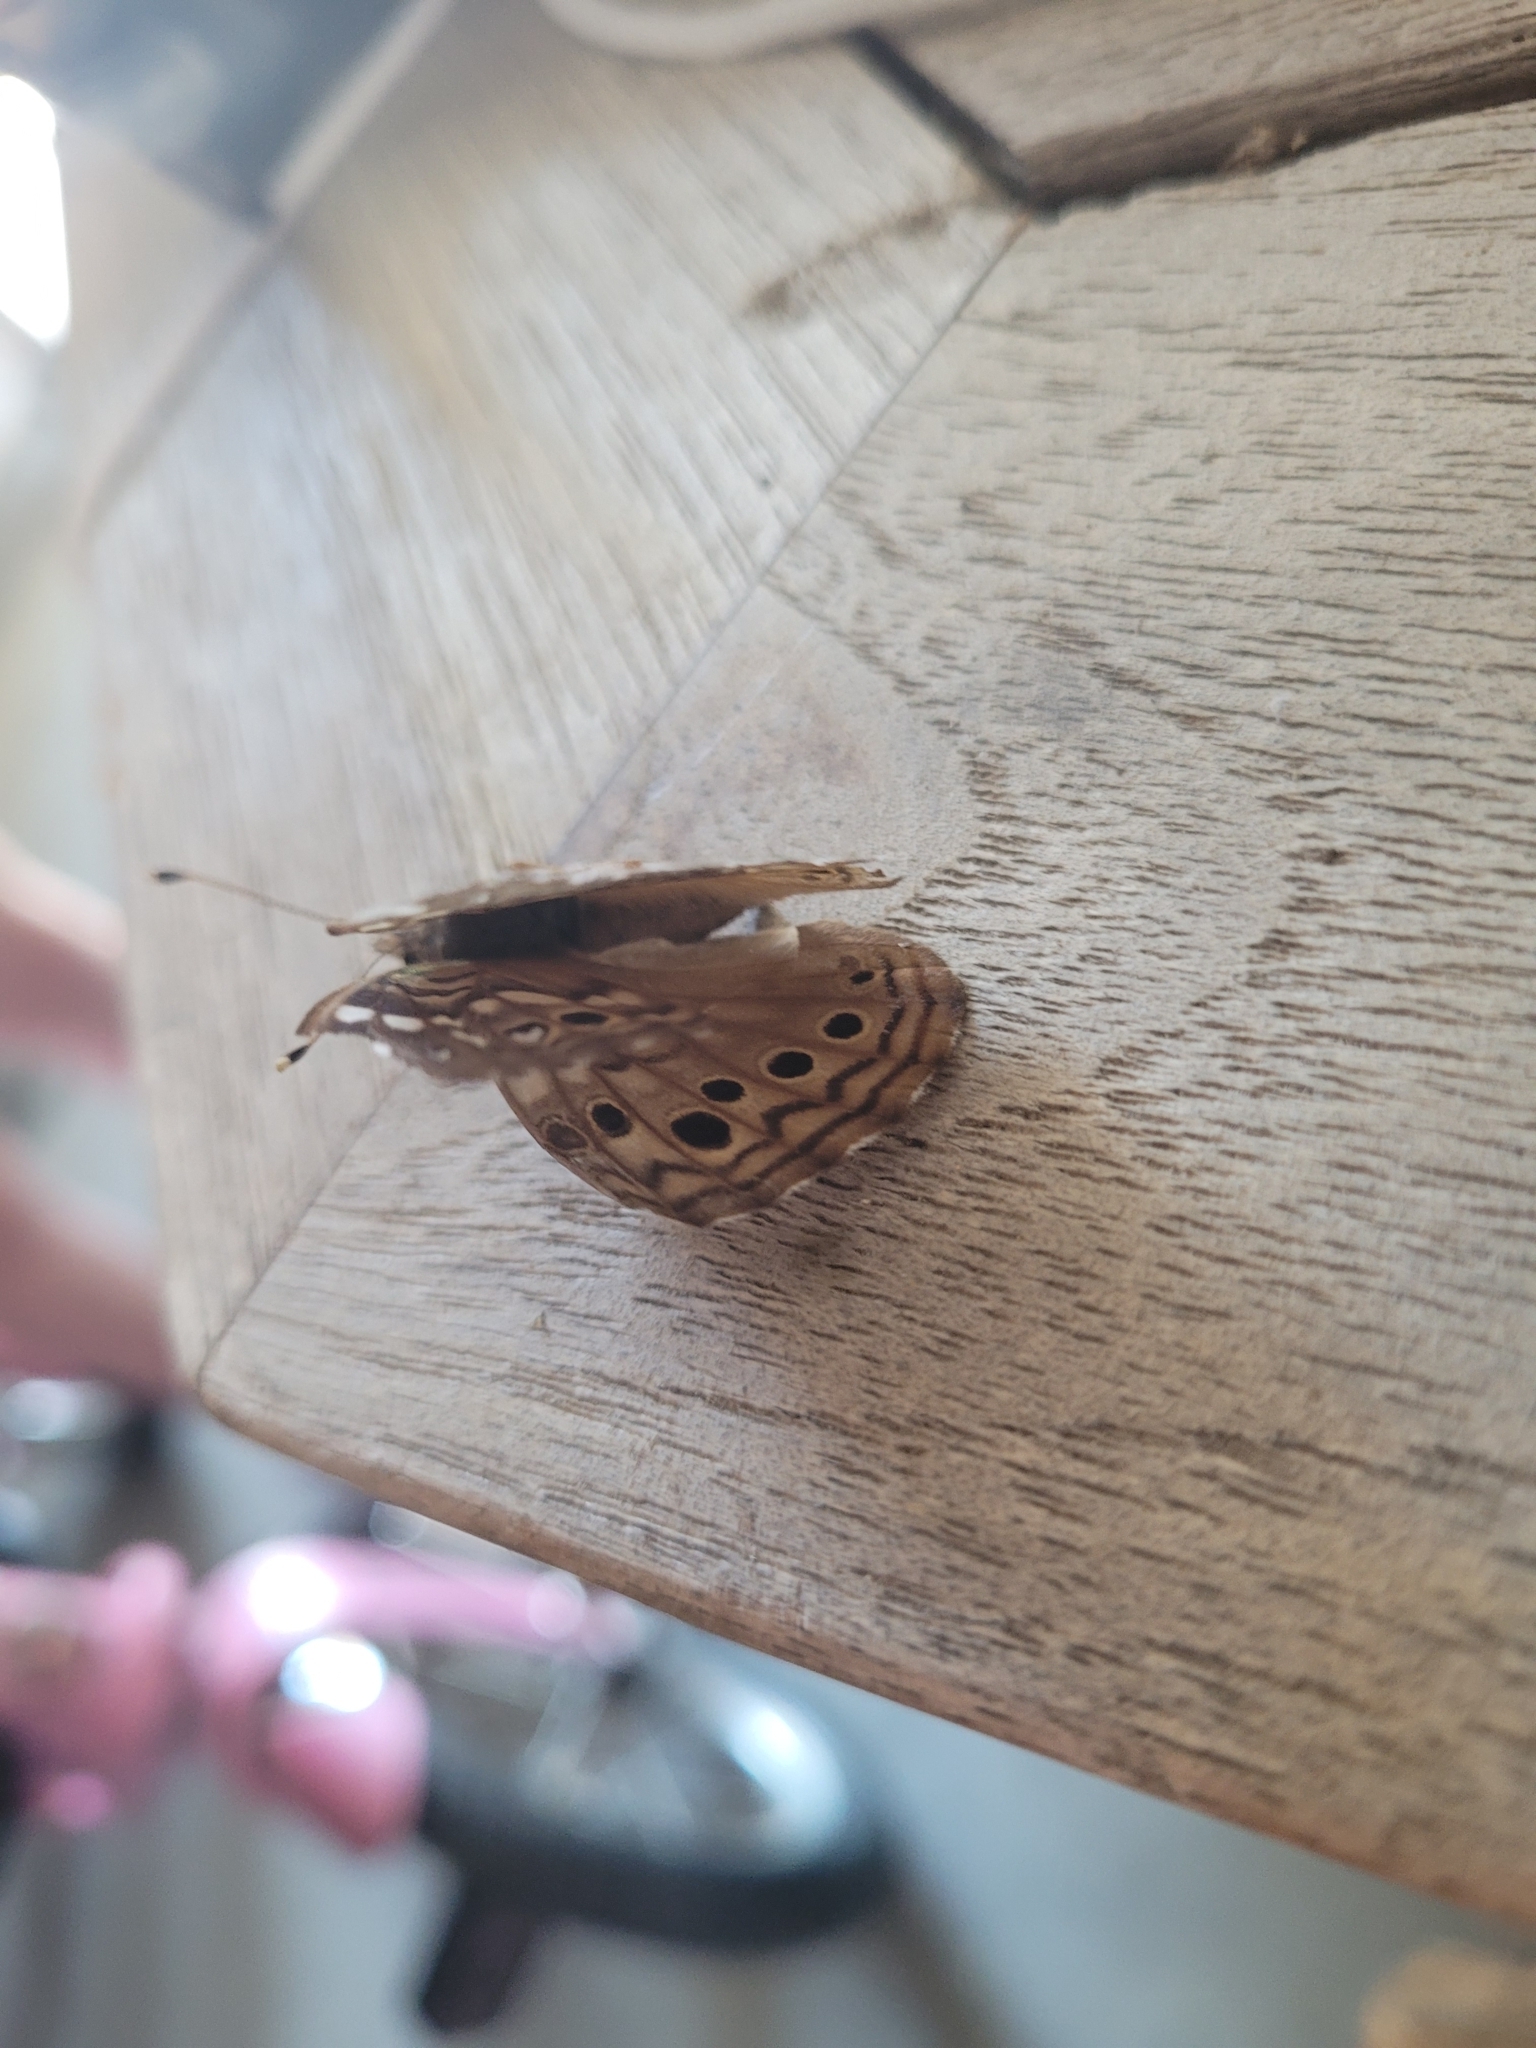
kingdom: Animalia
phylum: Arthropoda
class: Insecta
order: Lepidoptera
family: Nymphalidae
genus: Asterocampa
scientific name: Asterocampa celtis
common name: Hackberry emperor
